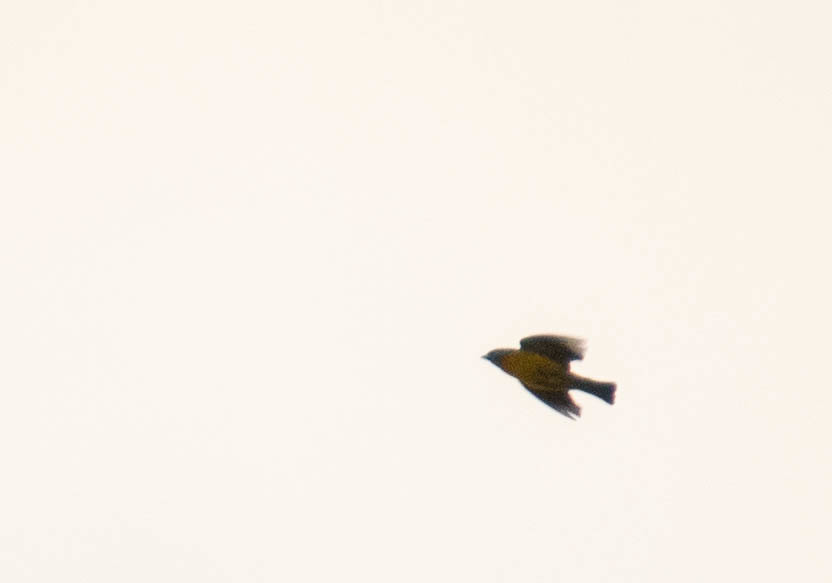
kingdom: Animalia
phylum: Chordata
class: Aves
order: Passeriformes
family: Thraupidae
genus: Rauenia
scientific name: Rauenia bonariensis
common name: Blue-and-yellow tanager
